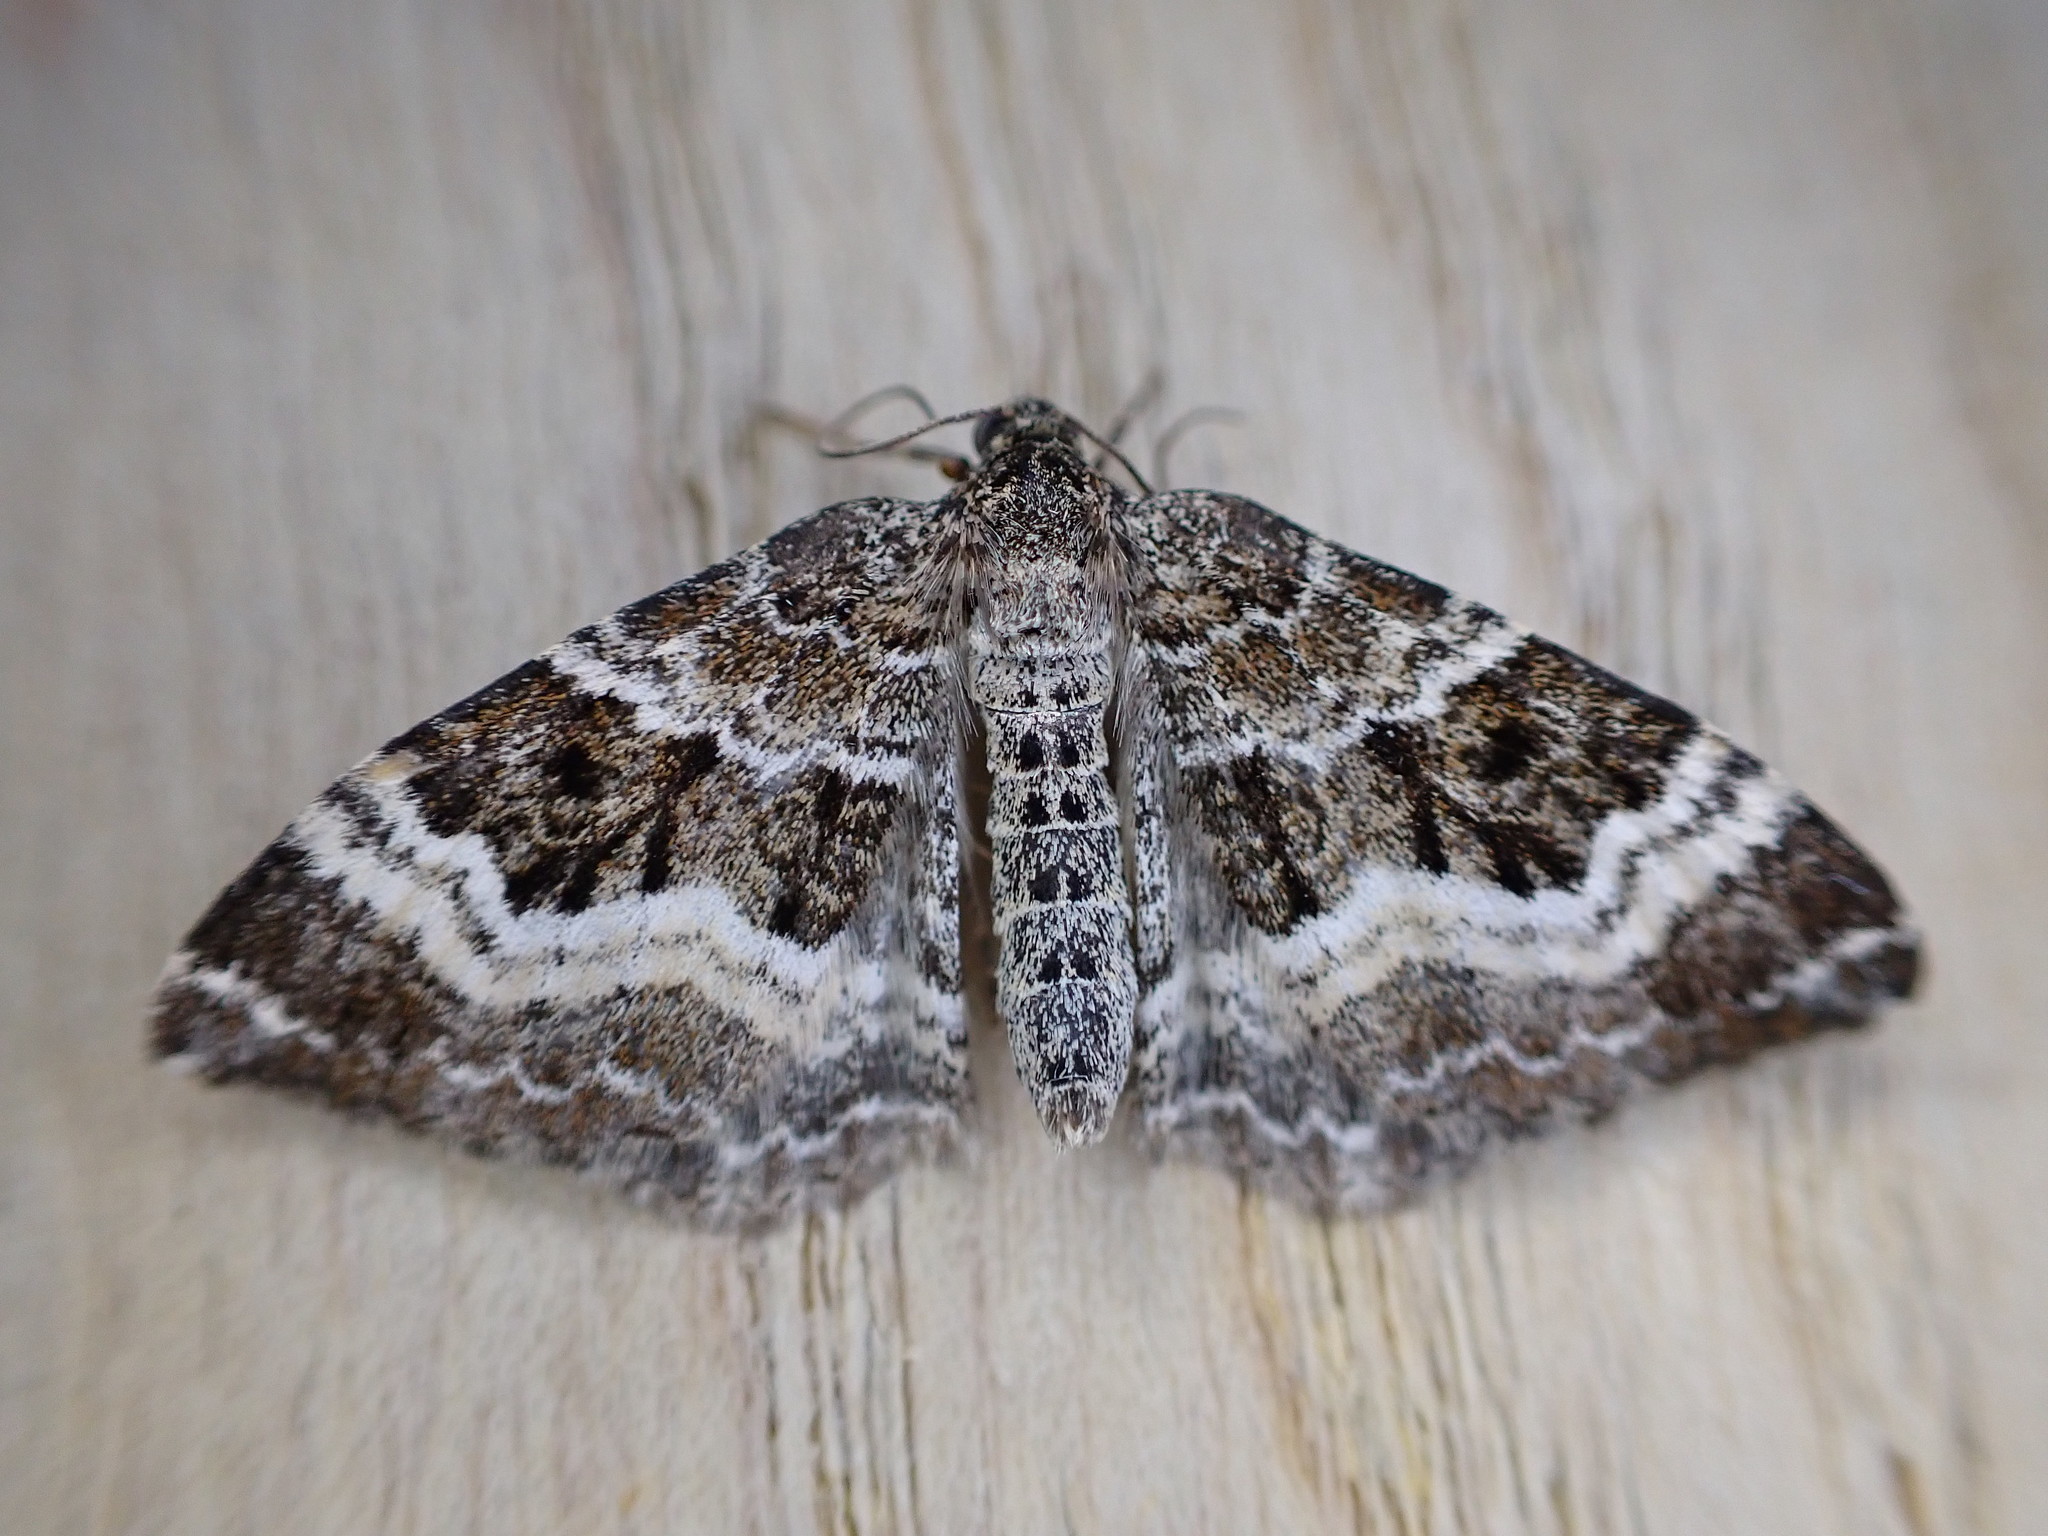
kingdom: Animalia
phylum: Arthropoda
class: Insecta
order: Lepidoptera
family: Geometridae
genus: Epirrhoe
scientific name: Epirrhoe alternata
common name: Common carpet
